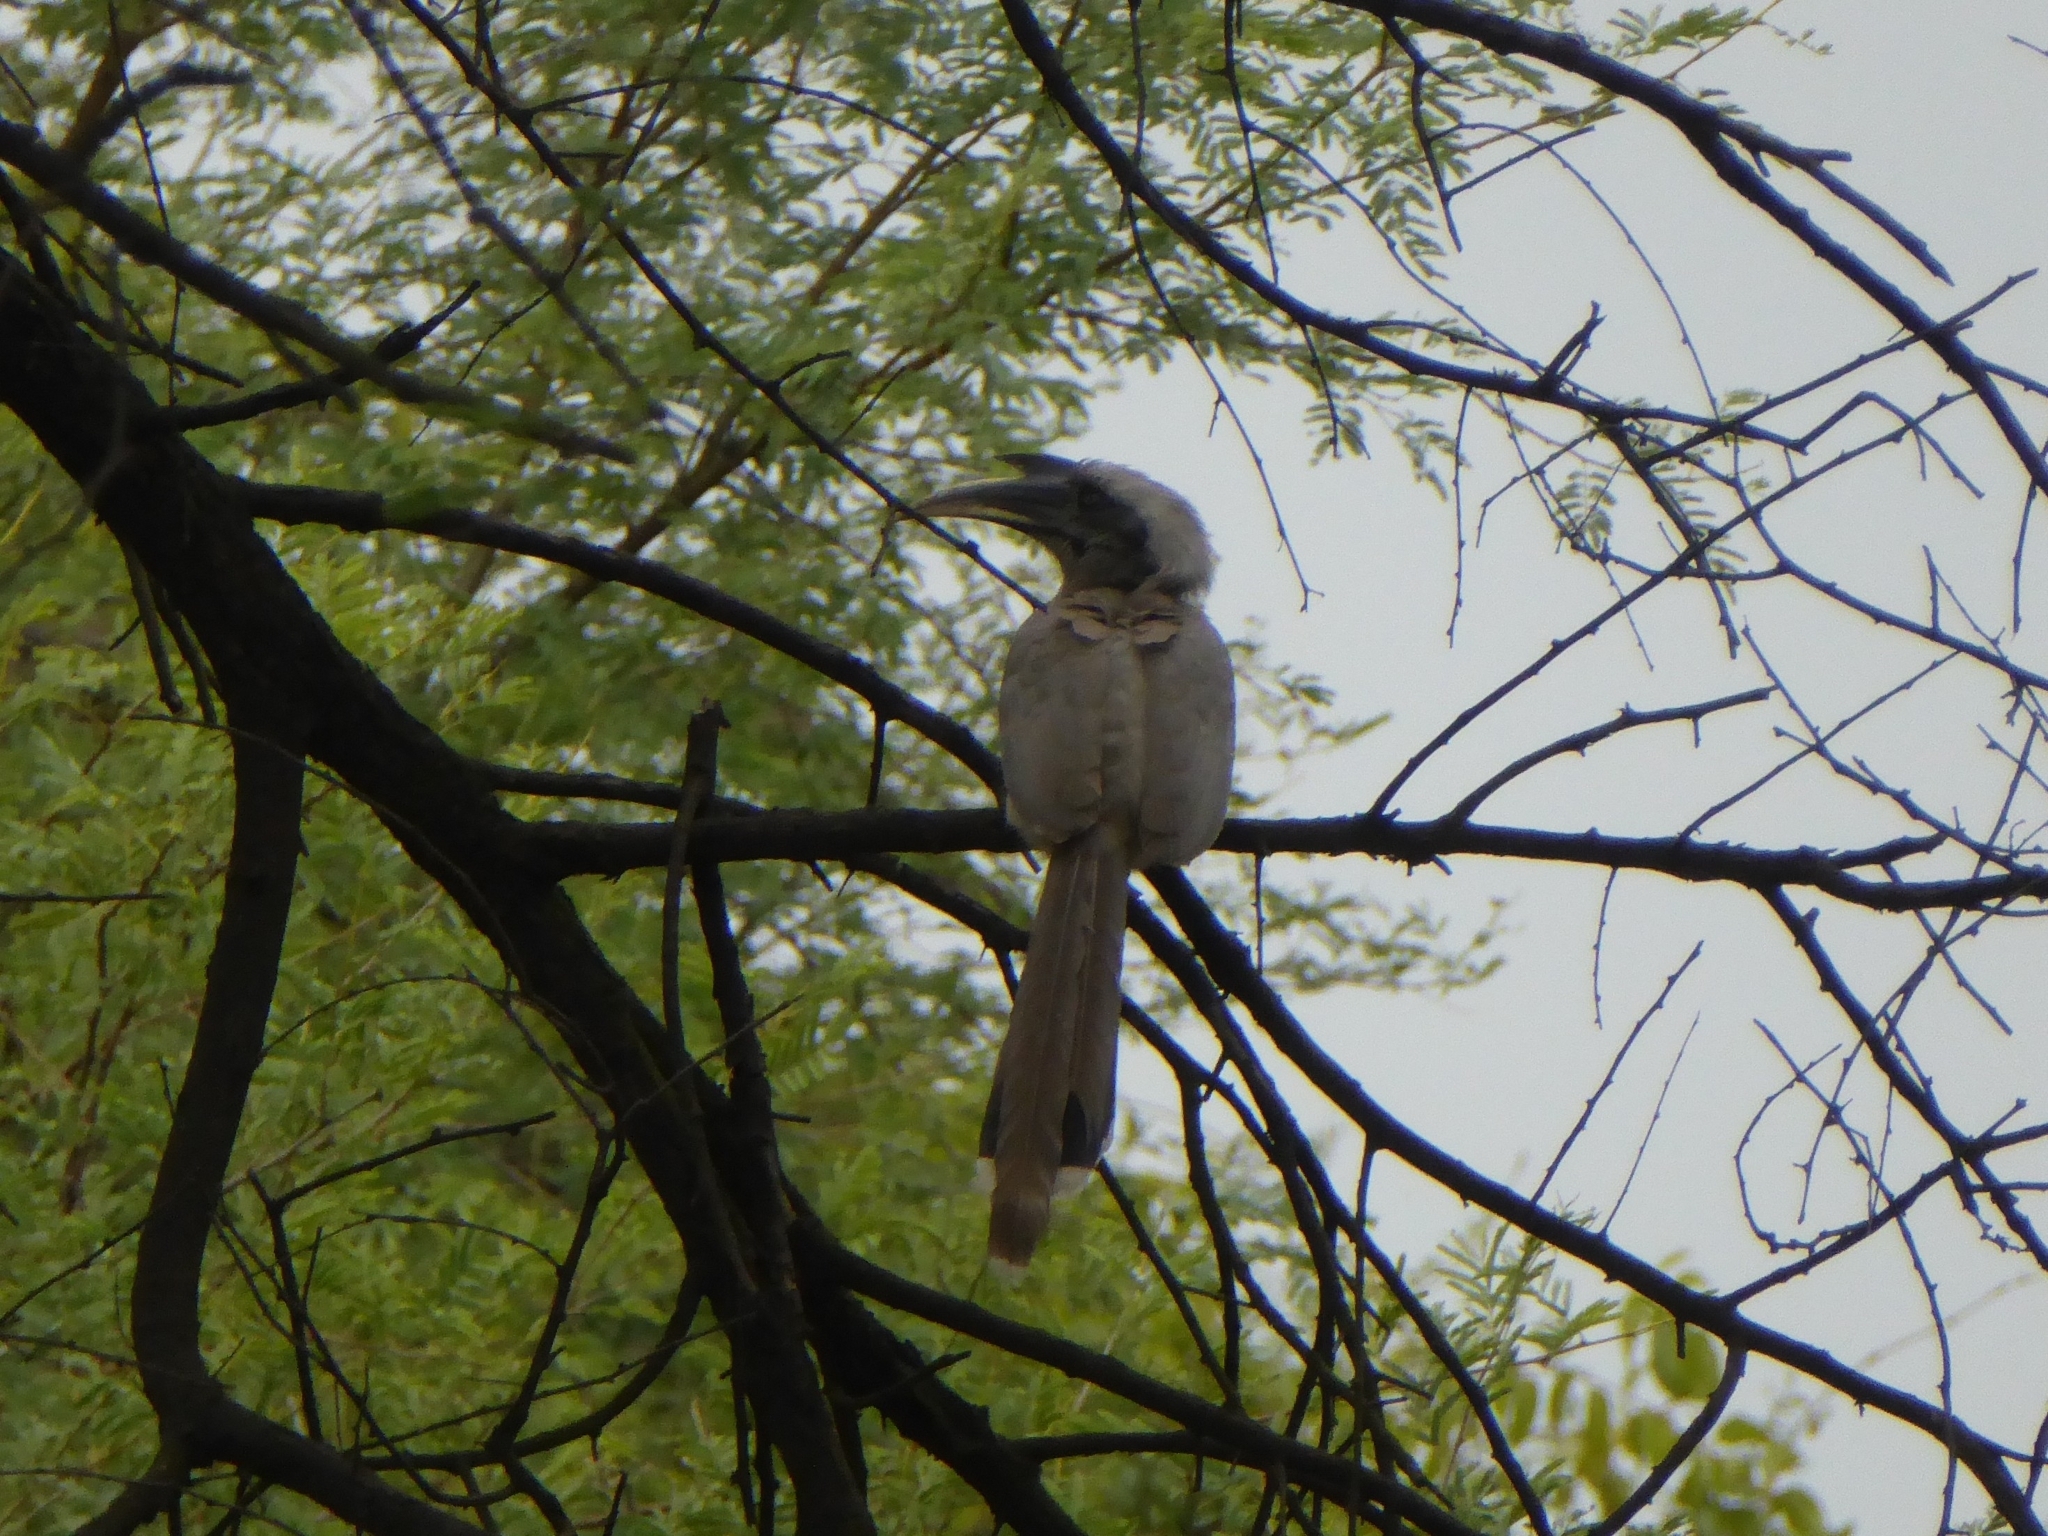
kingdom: Animalia
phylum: Chordata
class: Aves
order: Bucerotiformes
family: Bucerotidae
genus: Ocyceros
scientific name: Ocyceros birostris
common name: Indian grey hornbill
